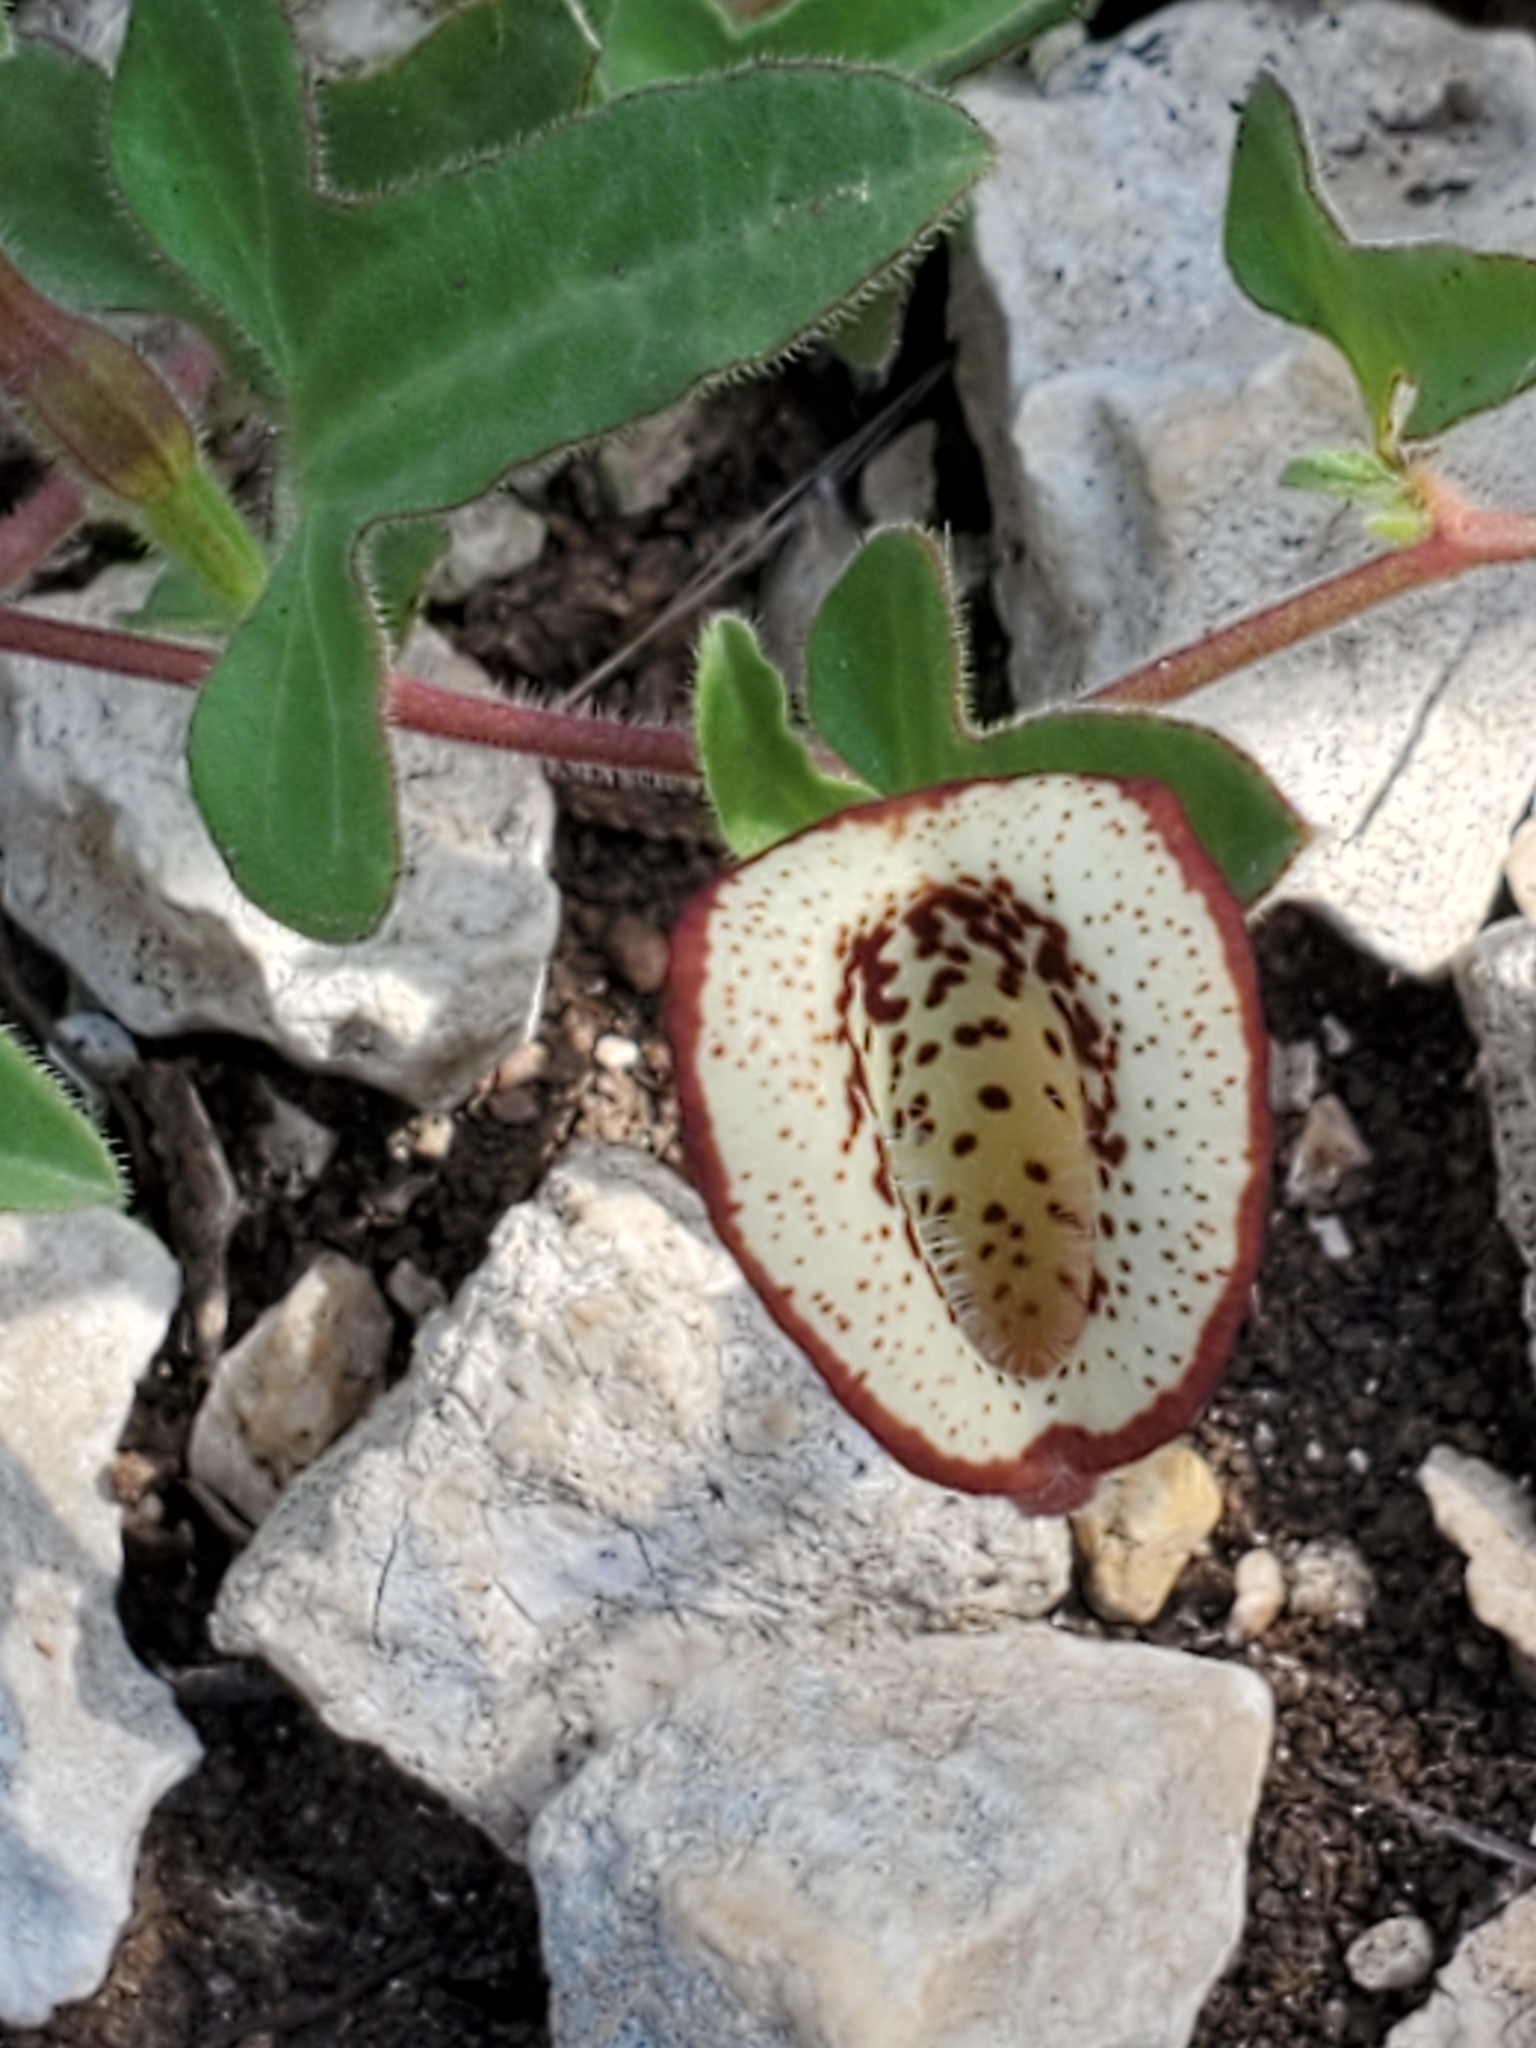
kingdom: Plantae
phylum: Tracheophyta
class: Magnoliopsida
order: Piperales
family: Aristolochiaceae
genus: Aristolochia
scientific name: Aristolochia coryi
